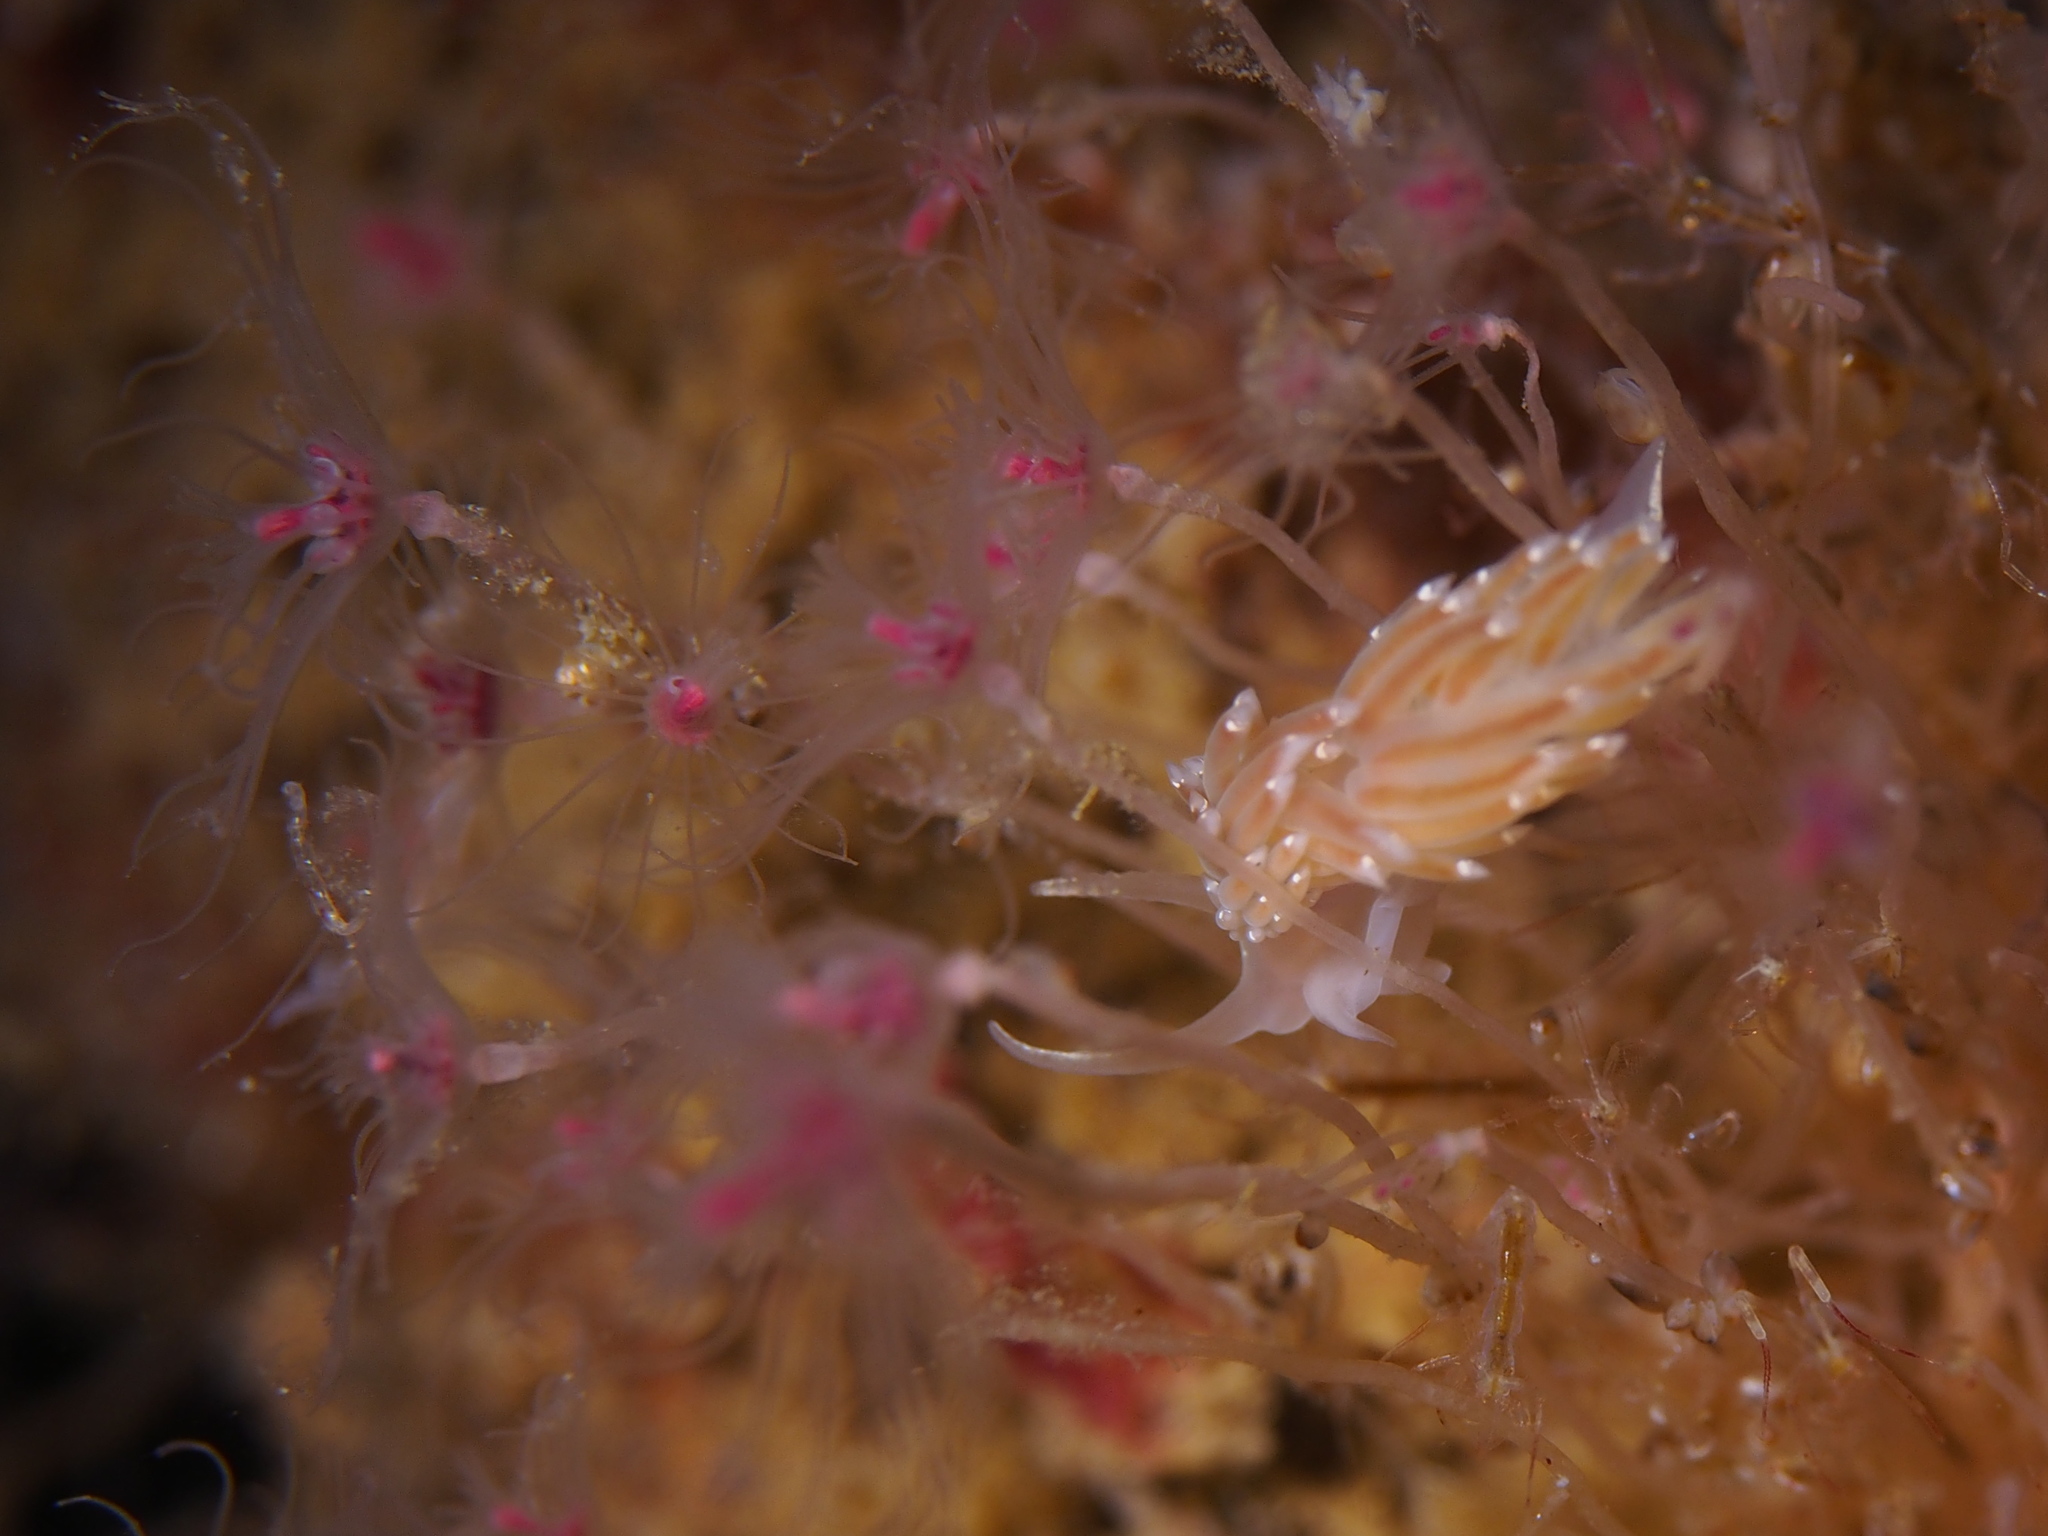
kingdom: Animalia
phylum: Mollusca
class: Gastropoda
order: Nudibranchia
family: Coryphellidae
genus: Coryphella
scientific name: Coryphella verrucosa
